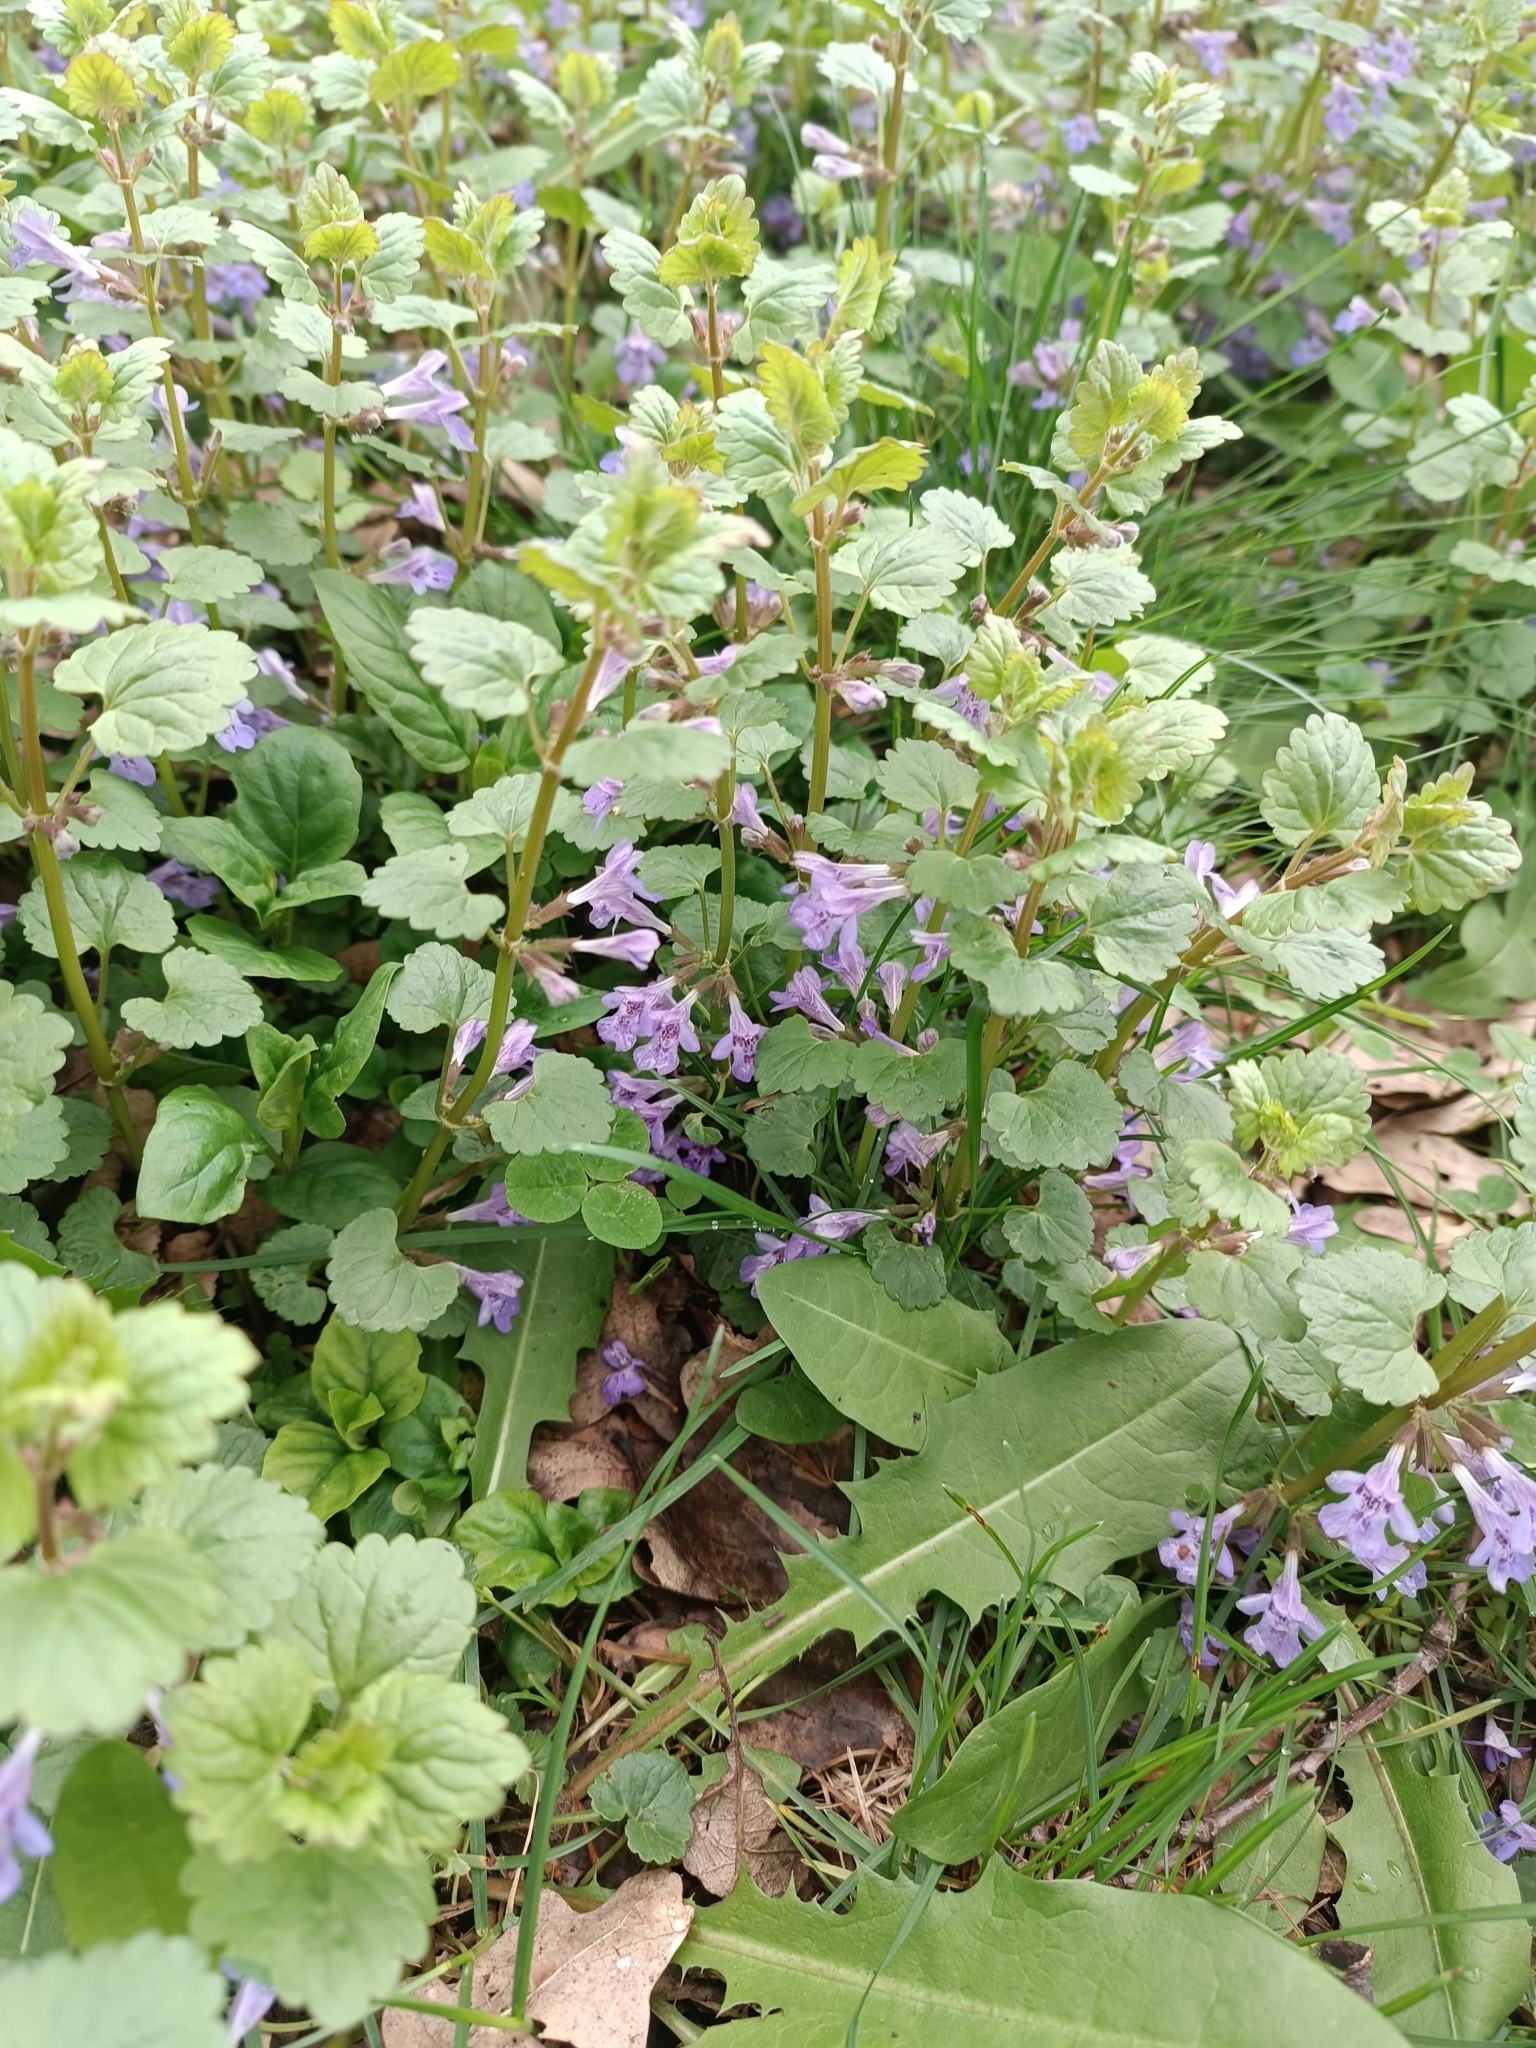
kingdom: Plantae
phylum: Tracheophyta
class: Magnoliopsida
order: Lamiales
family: Lamiaceae
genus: Glechoma
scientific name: Glechoma hederacea
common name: Ground ivy
